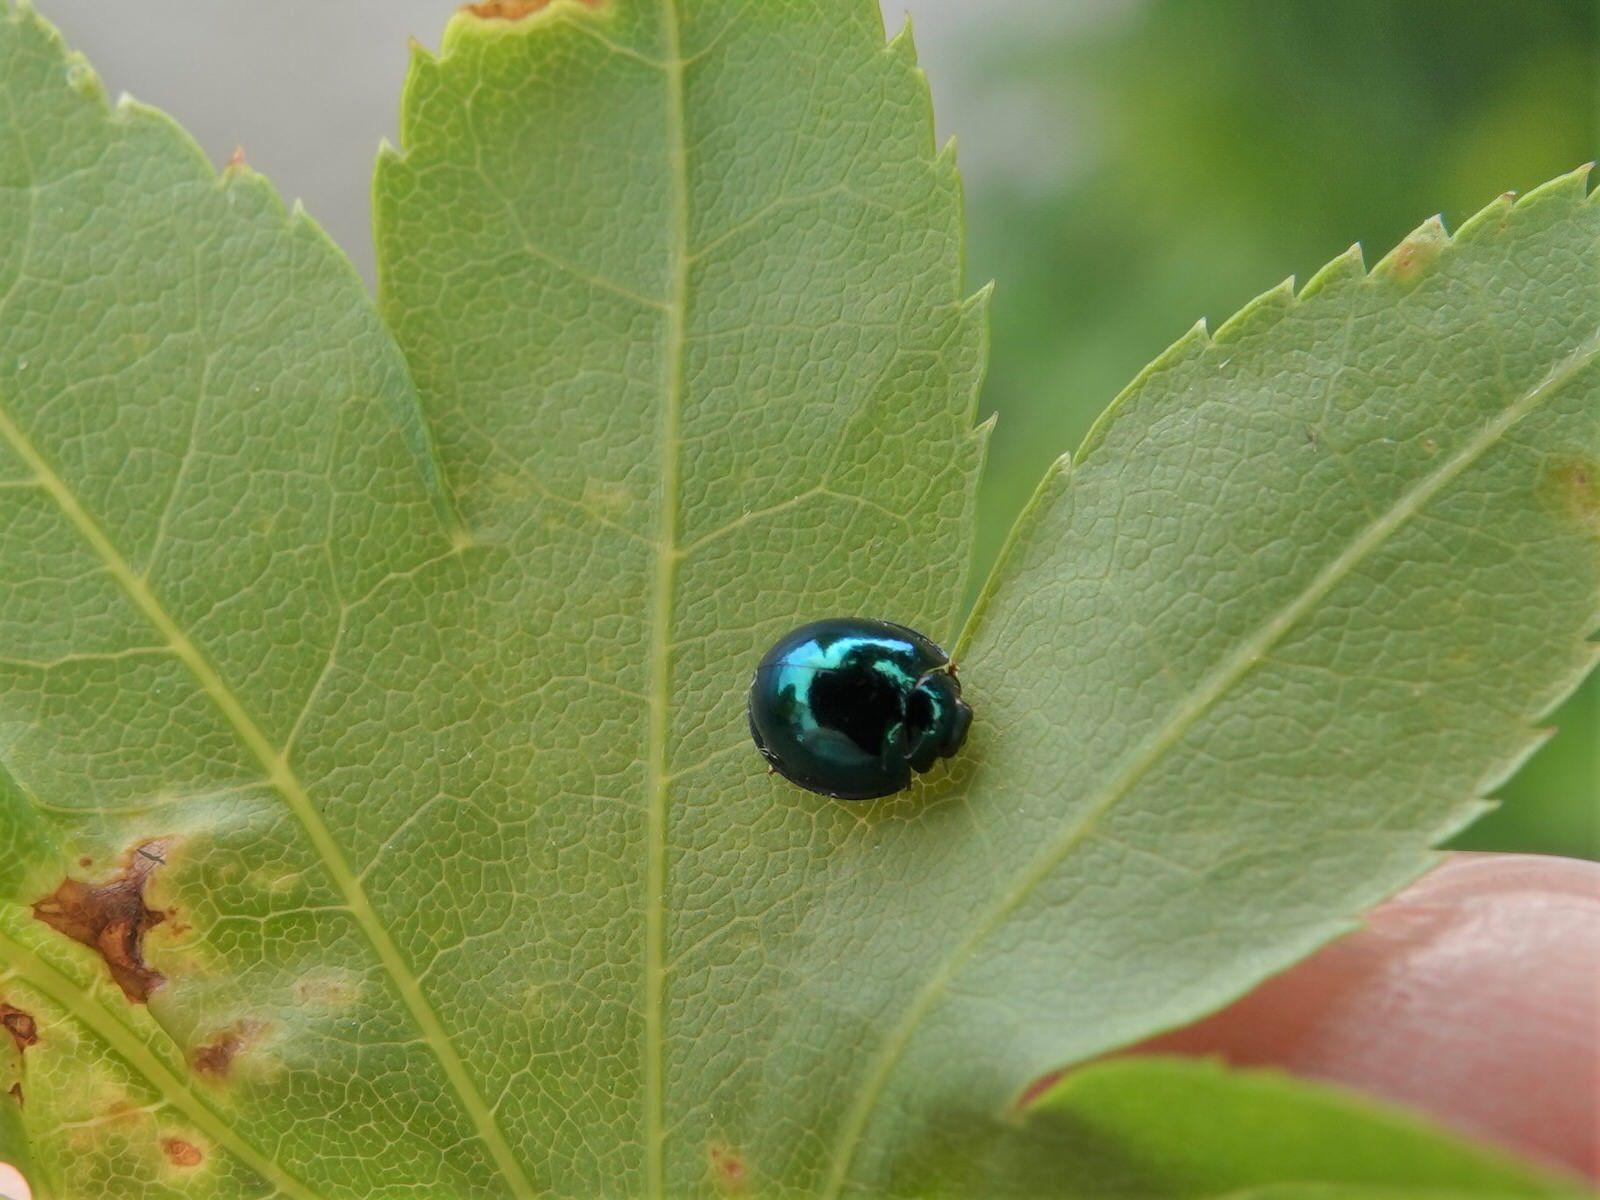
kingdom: Animalia
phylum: Arthropoda
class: Insecta
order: Coleoptera
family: Coccinellidae
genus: Halmus
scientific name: Halmus chalybeus
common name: Steel blue ladybird beetle
